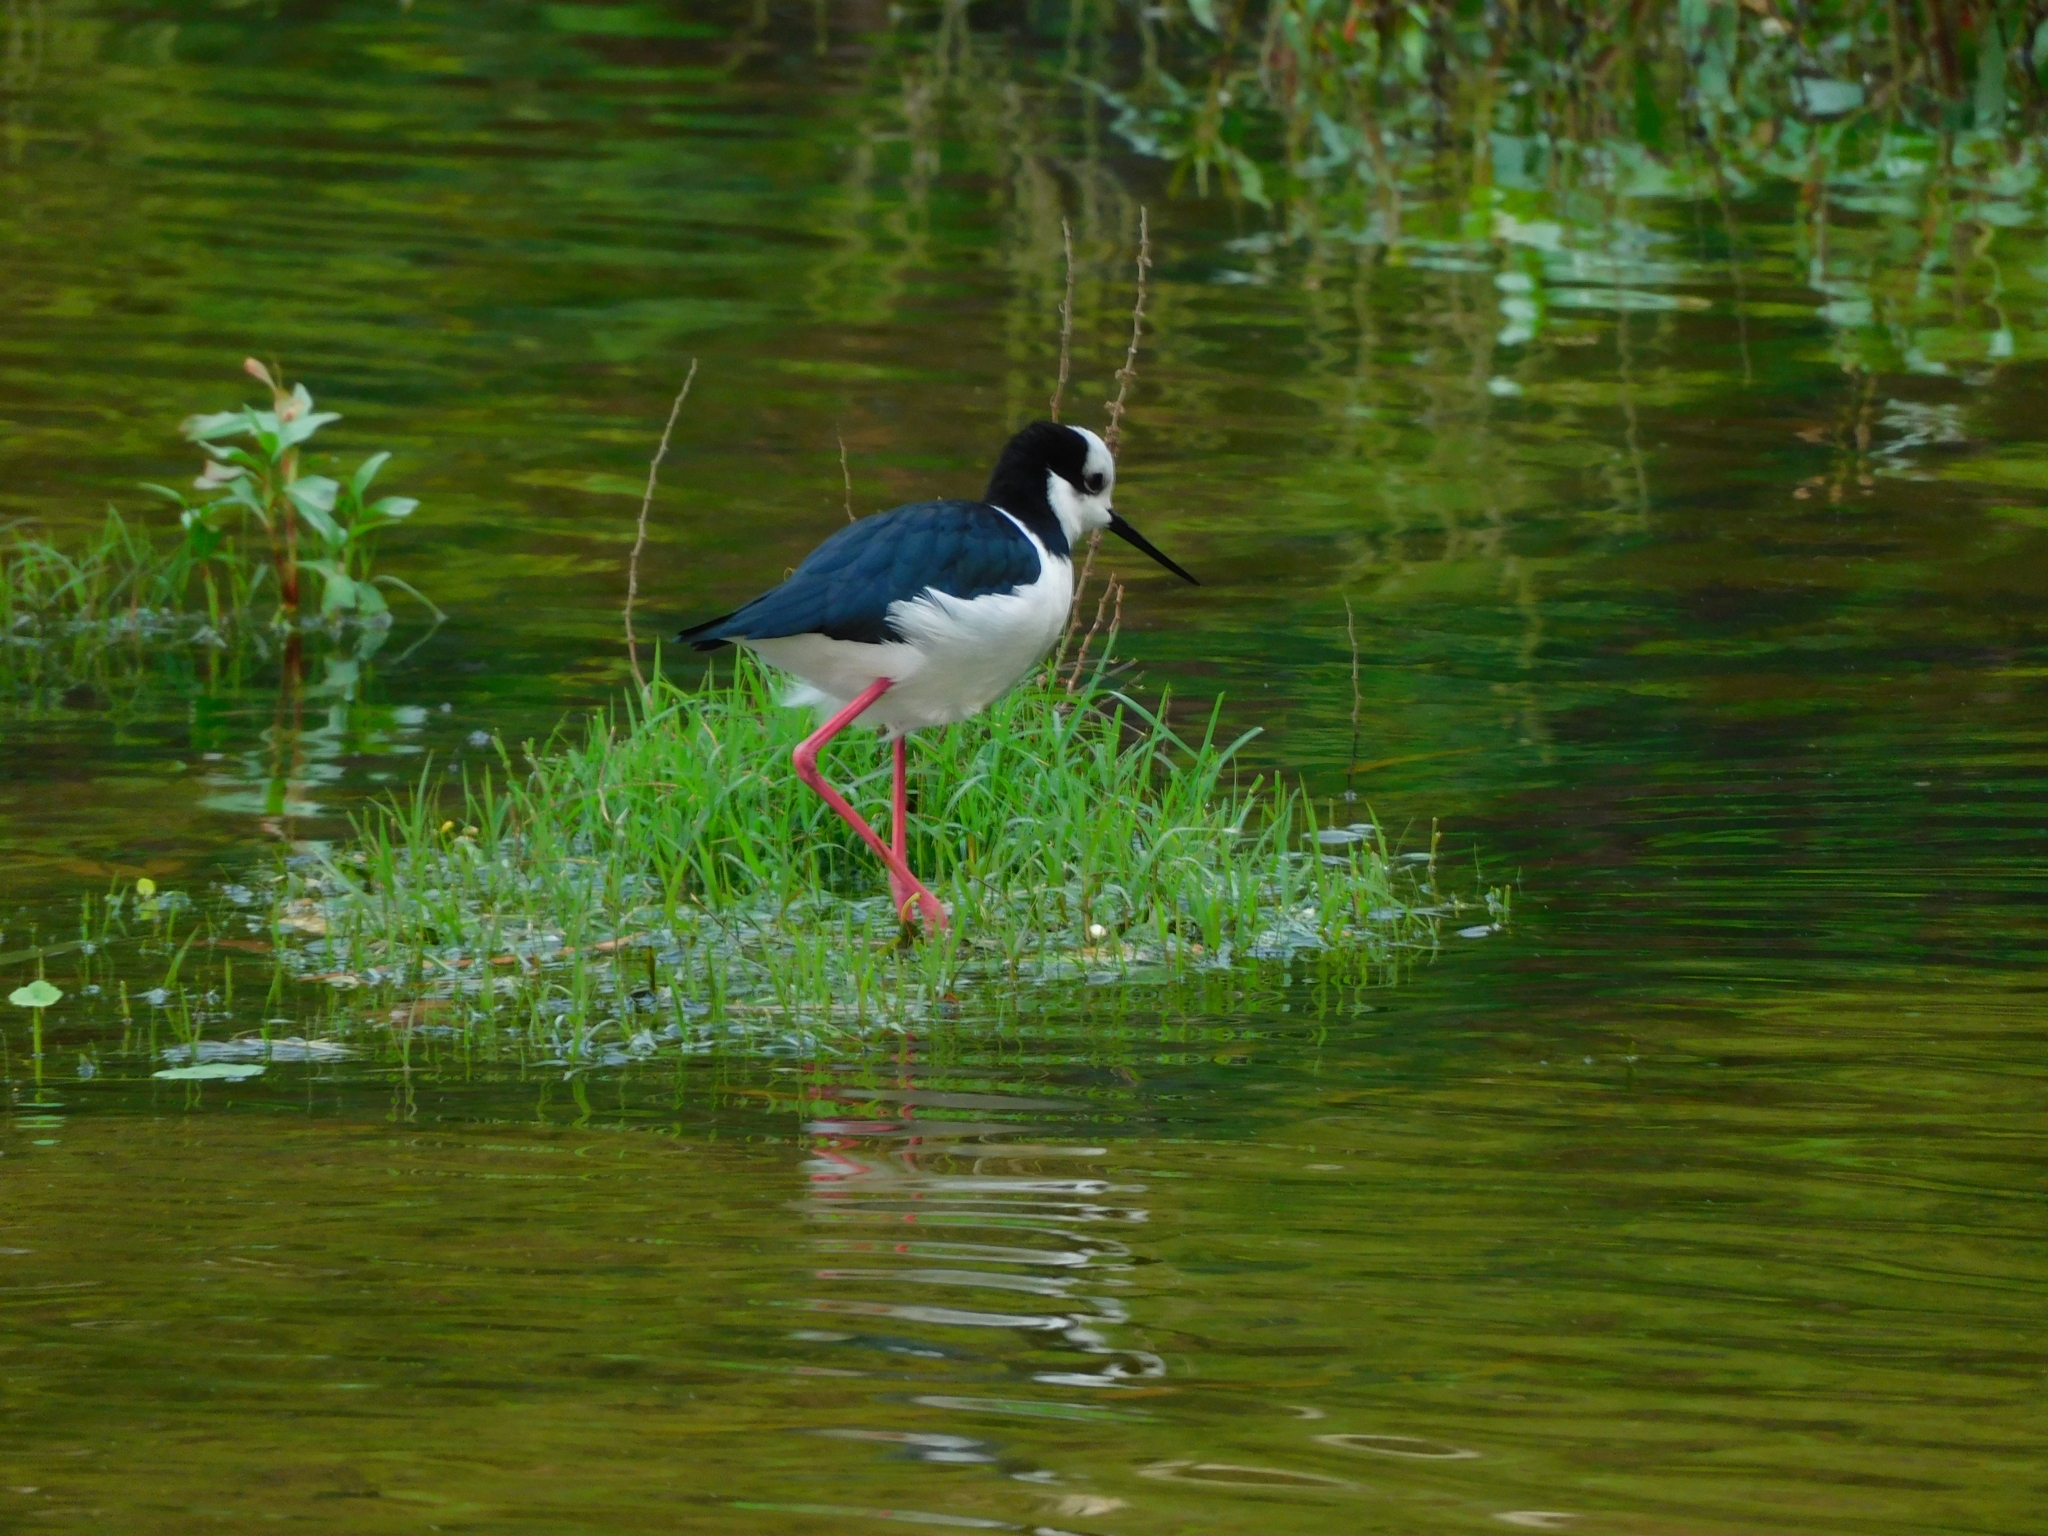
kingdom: Animalia
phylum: Chordata
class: Aves
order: Charadriiformes
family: Recurvirostridae
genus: Himantopus
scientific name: Himantopus mexicanus
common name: Black-necked stilt
